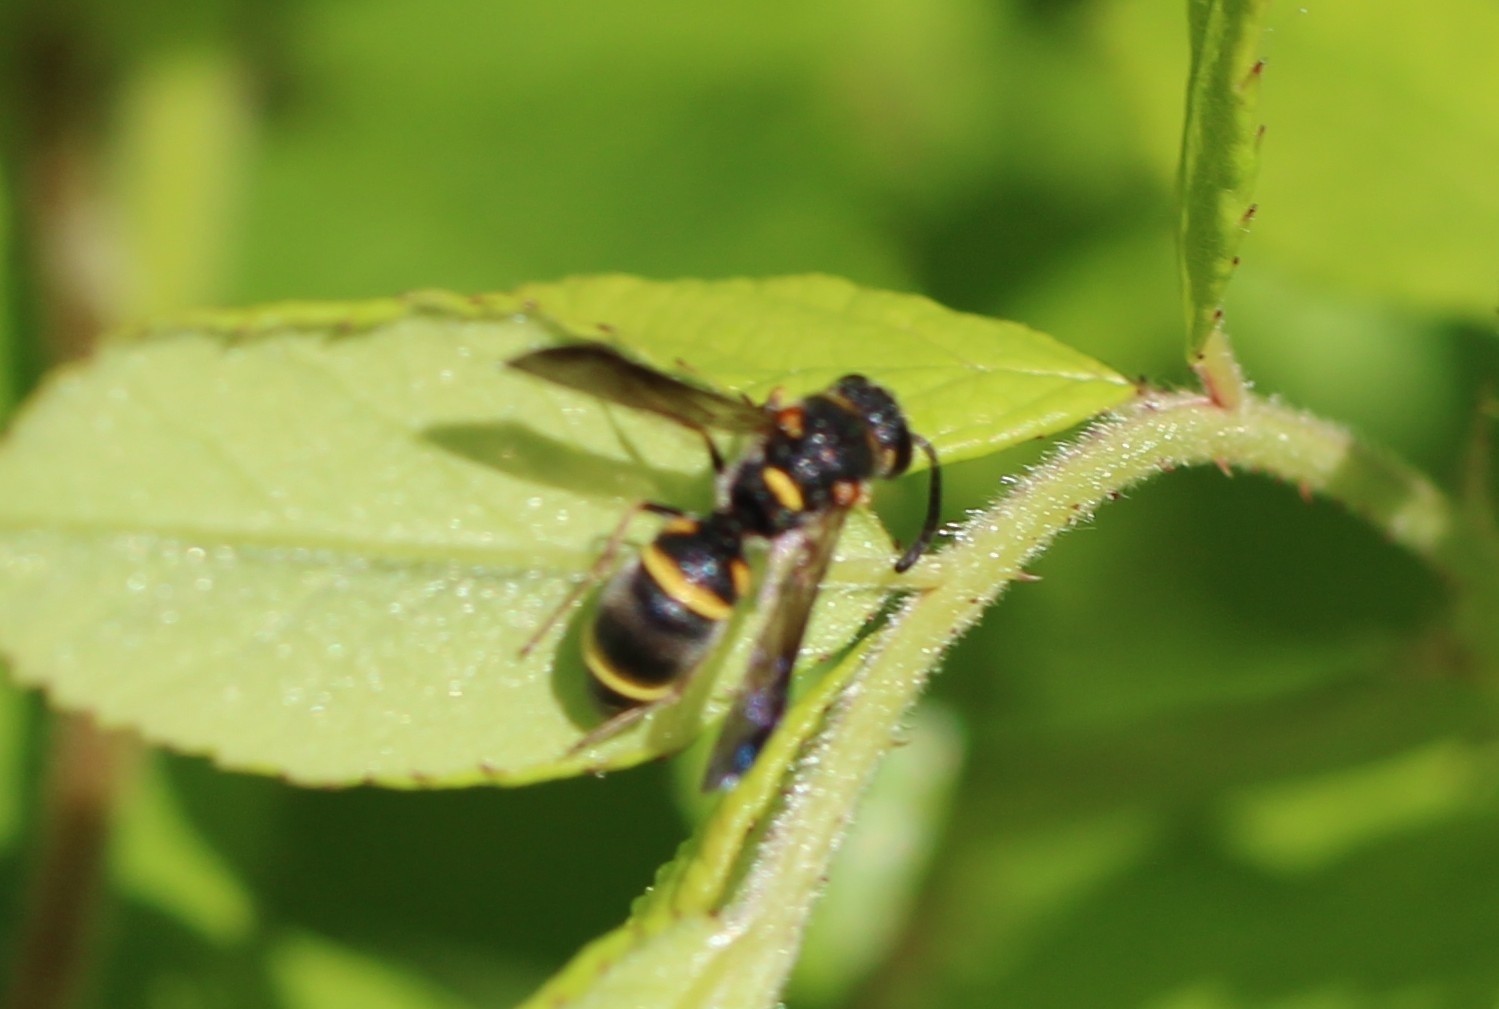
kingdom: Animalia
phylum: Arthropoda
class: Insecta
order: Hymenoptera
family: Eumenidae
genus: Parancistrocerus
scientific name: Parancistrocerus fulvipes
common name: Potter wasp
